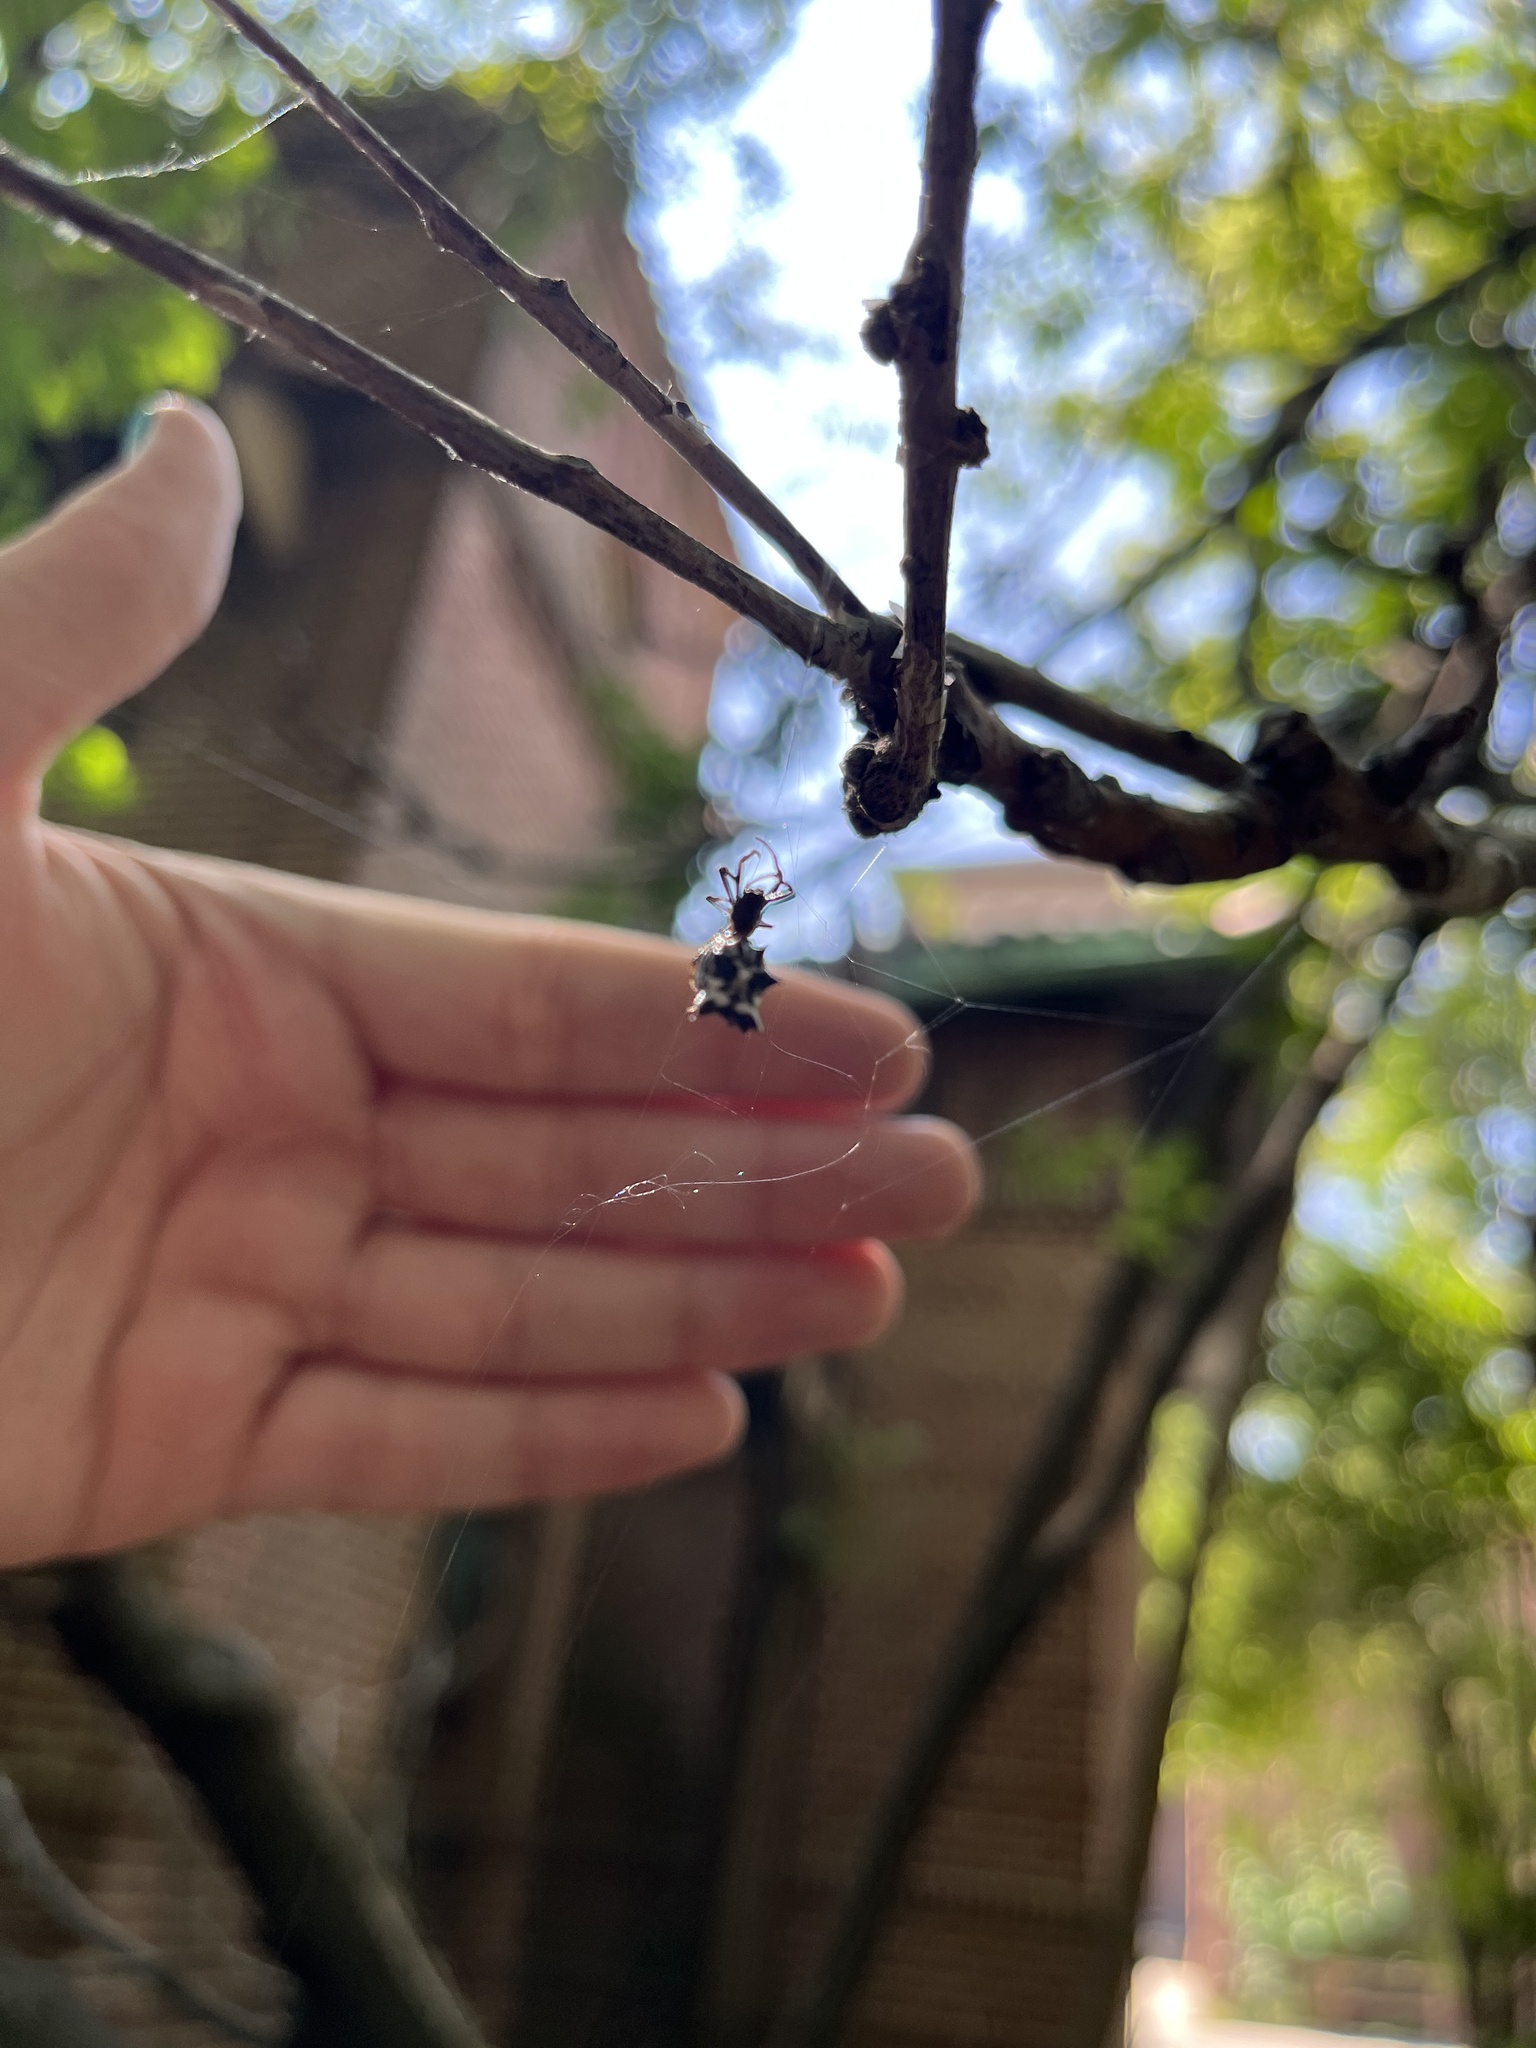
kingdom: Animalia
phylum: Arthropoda
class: Arachnida
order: Araneae
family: Araneidae
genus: Micrathena
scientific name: Micrathena gracilis
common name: Orb weavers
